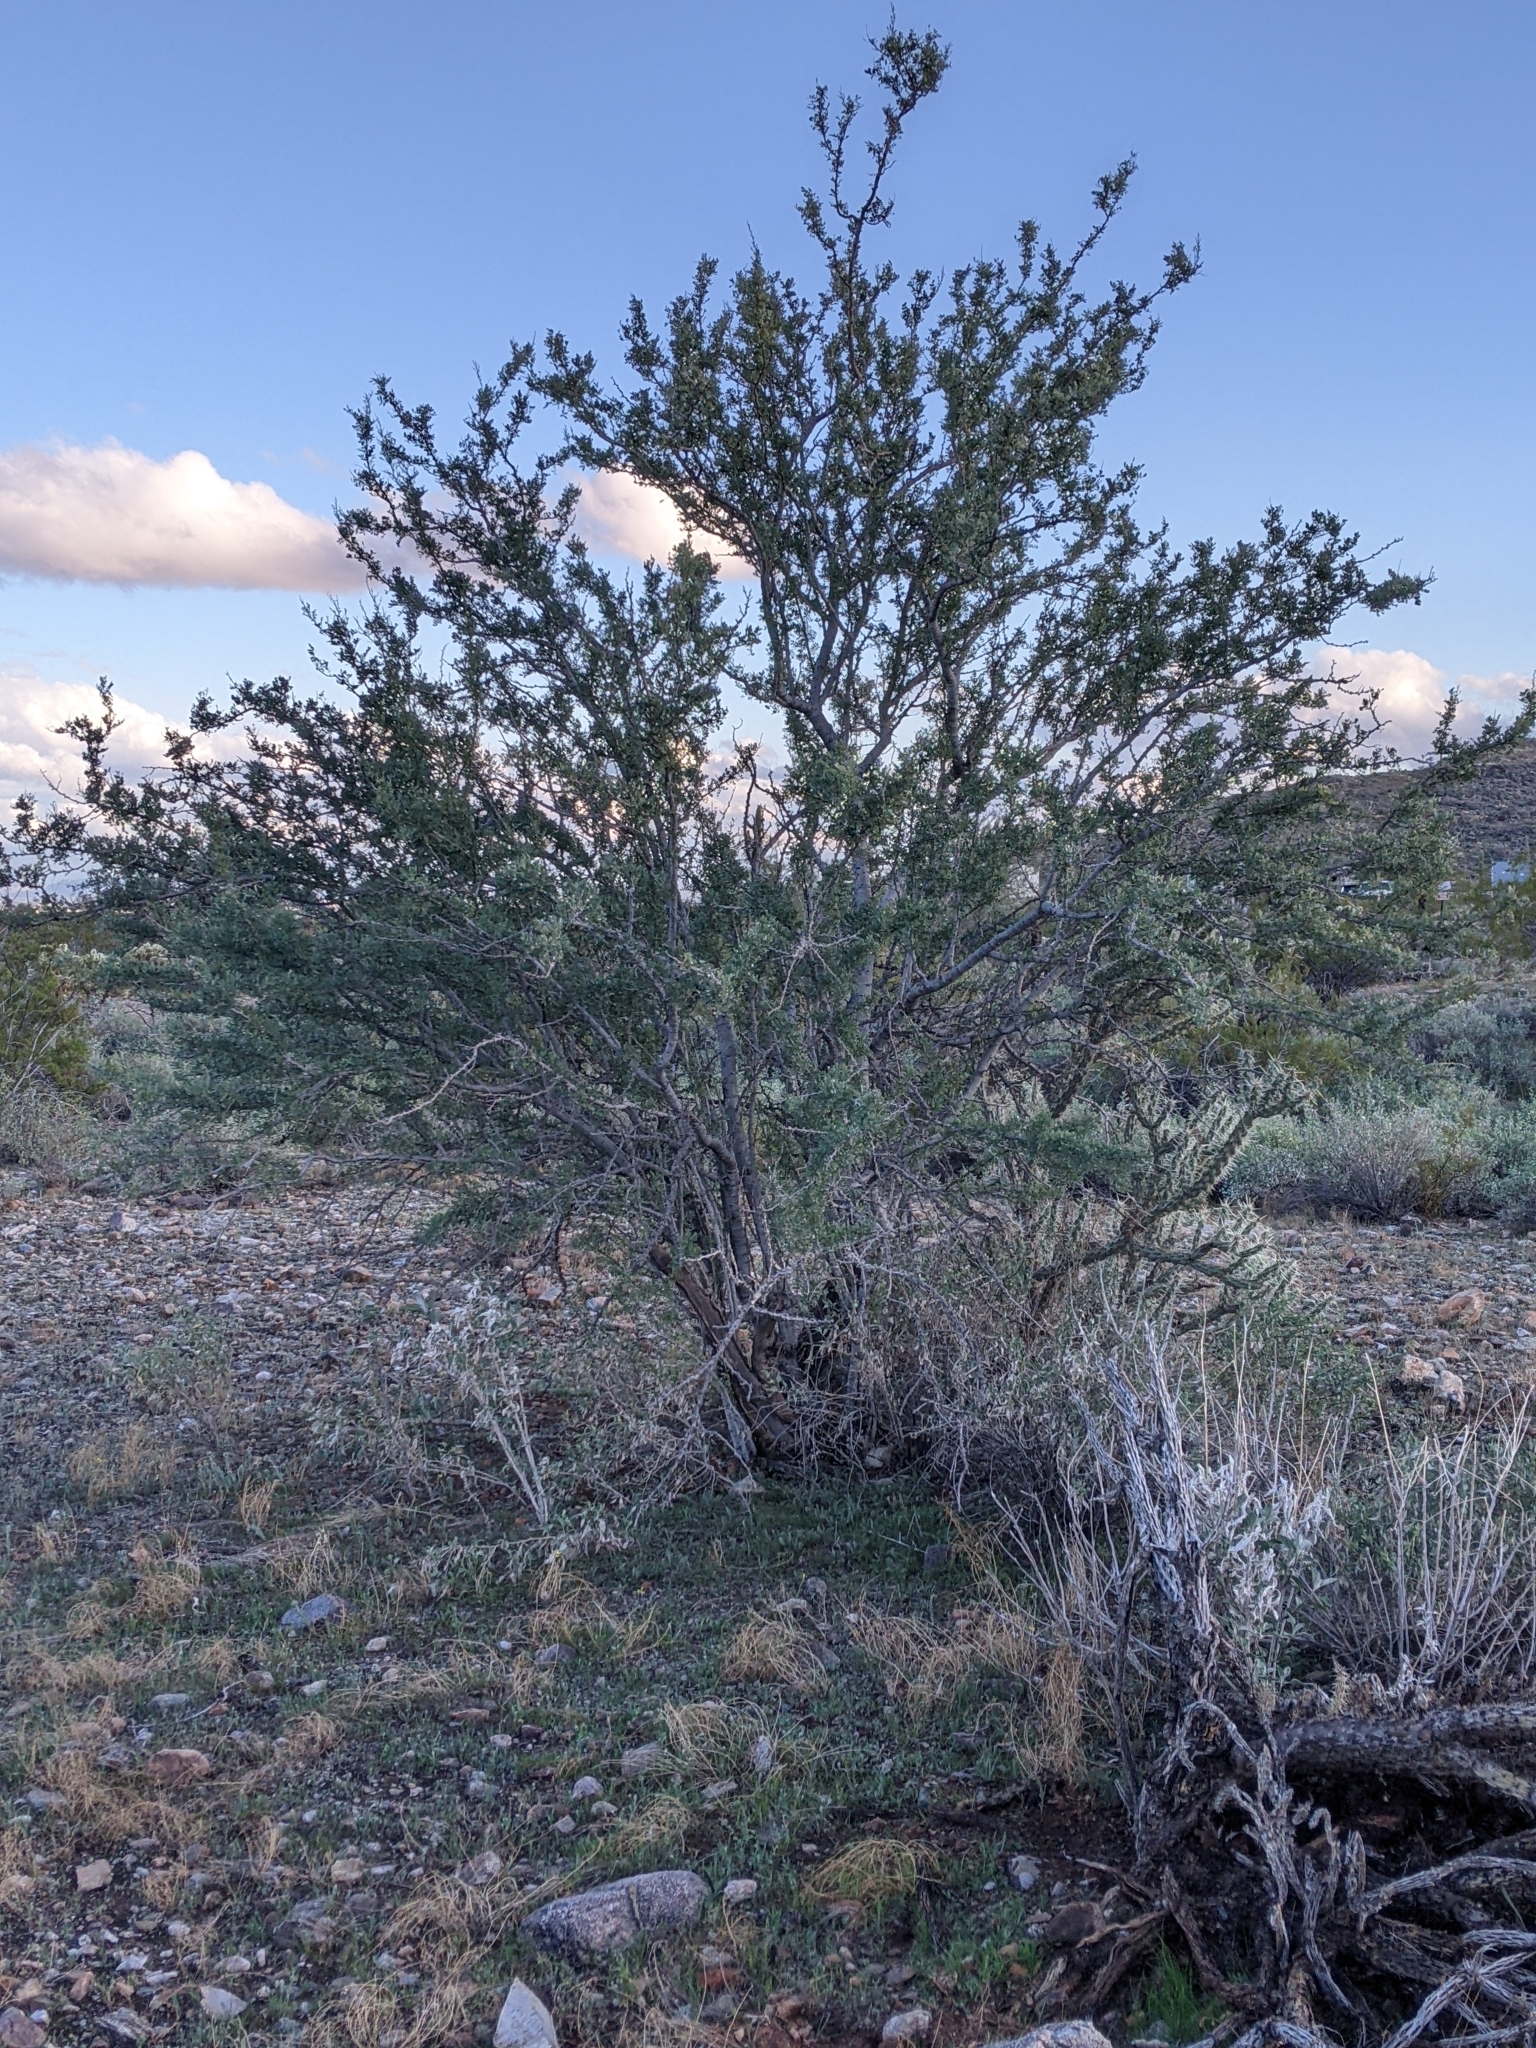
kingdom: Plantae
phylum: Tracheophyta
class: Magnoliopsida
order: Fabales
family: Fabaceae
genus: Olneya
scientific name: Olneya tesota
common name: Desert ironwood
